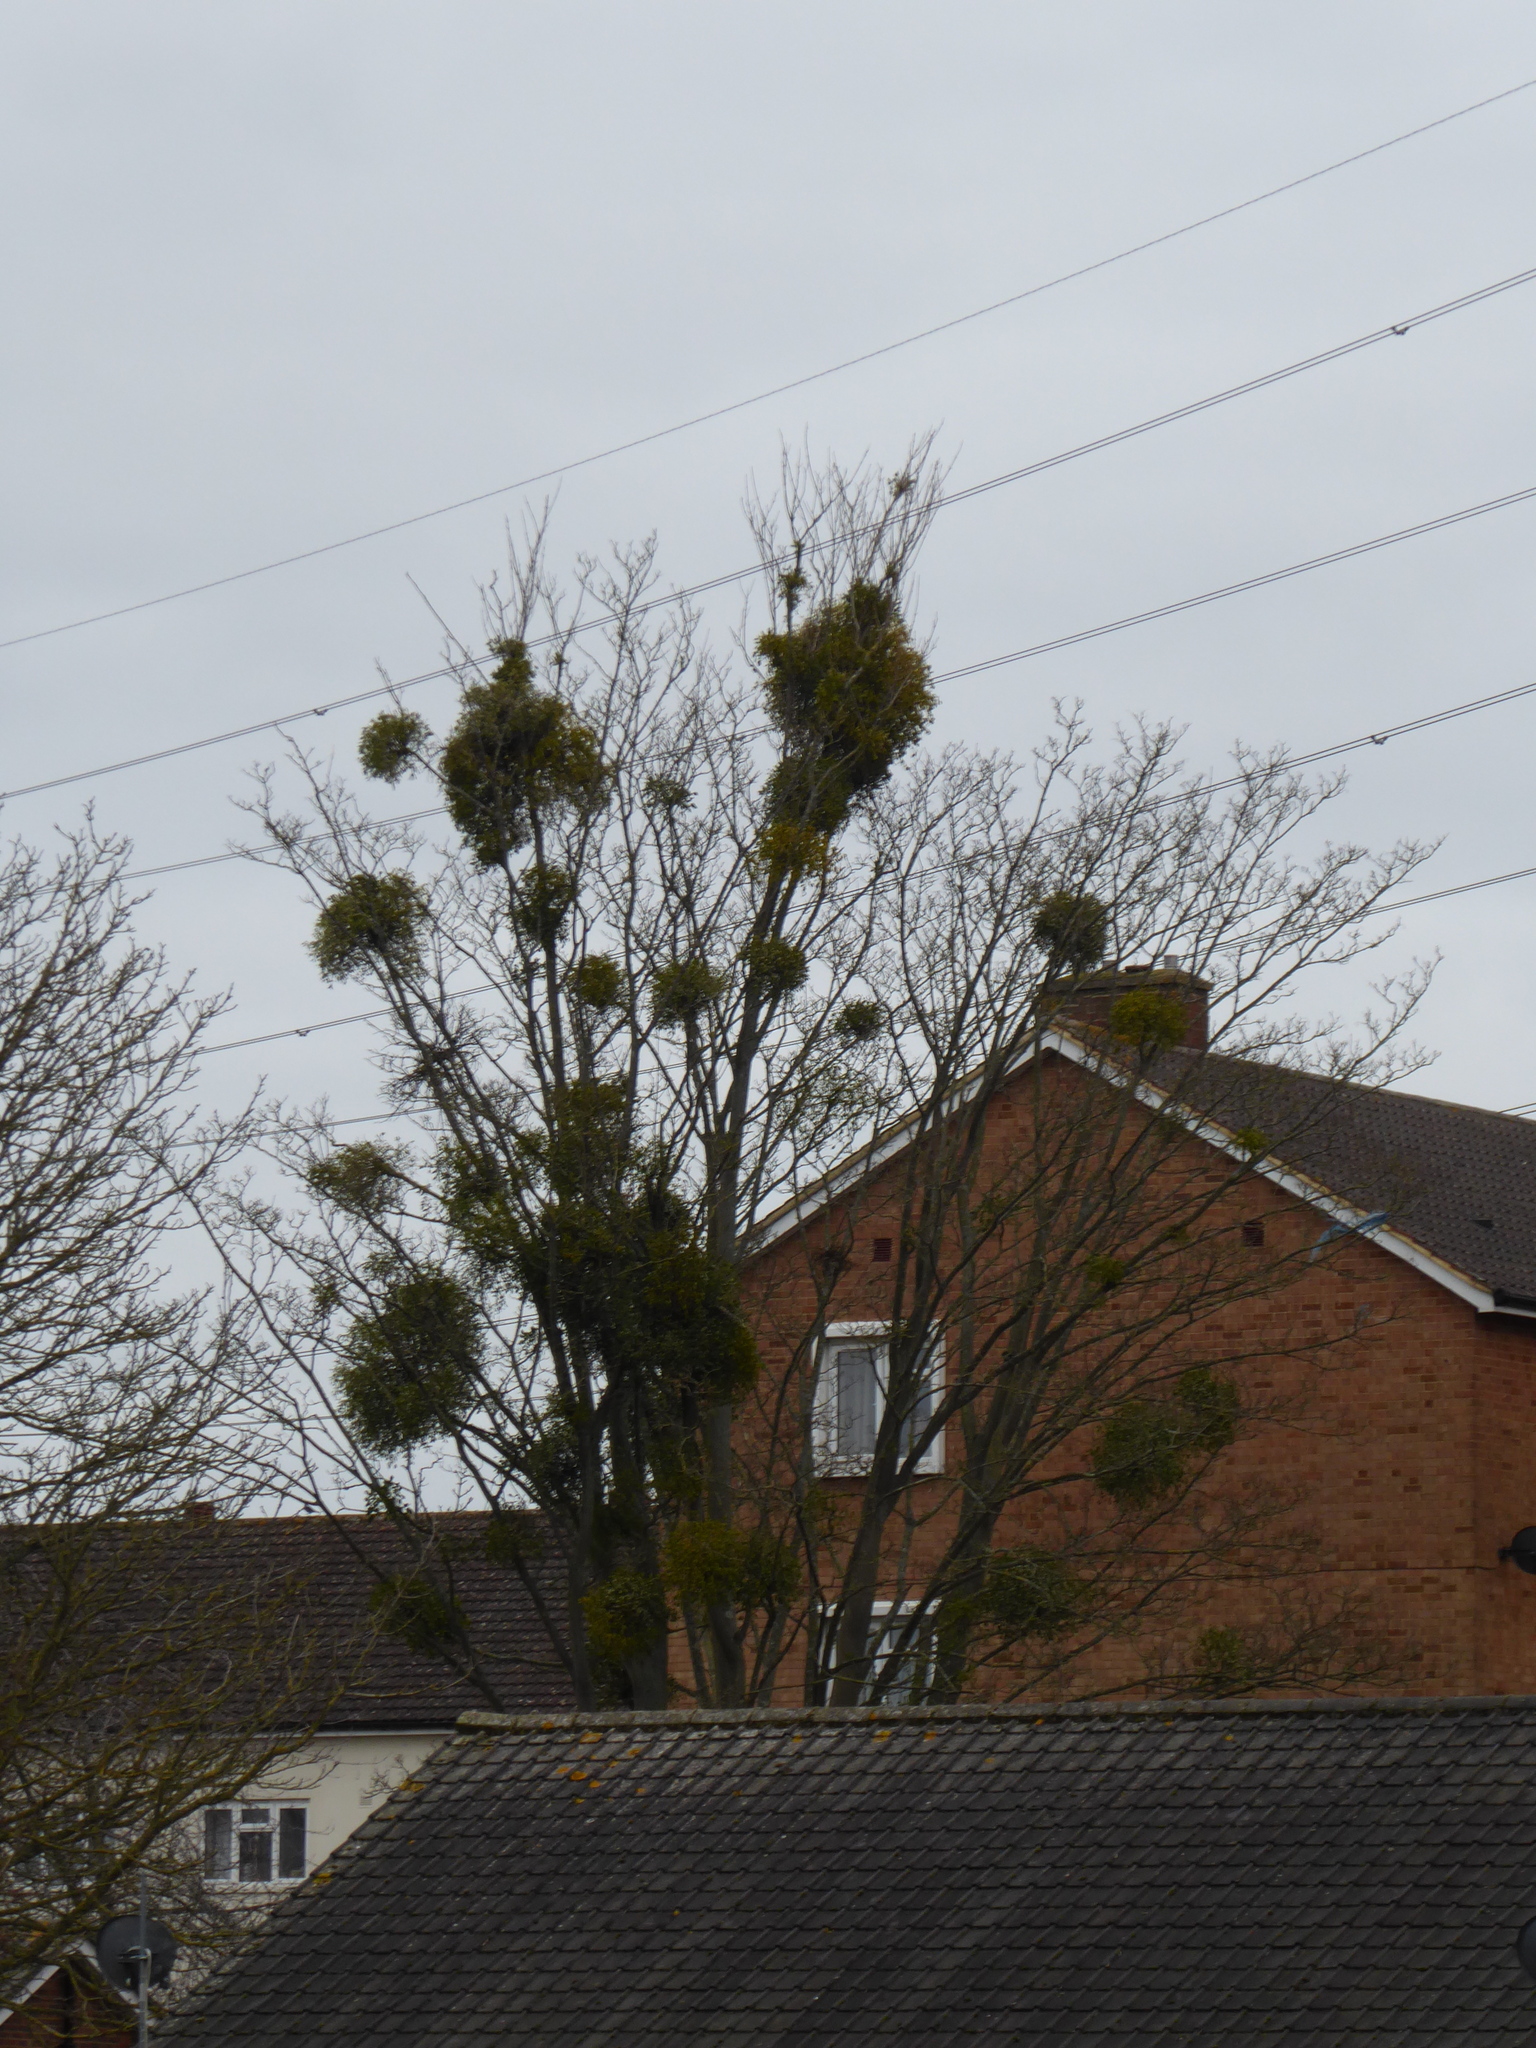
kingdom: Plantae
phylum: Tracheophyta
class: Magnoliopsida
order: Santalales
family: Viscaceae
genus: Viscum
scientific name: Viscum album
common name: Mistletoe
